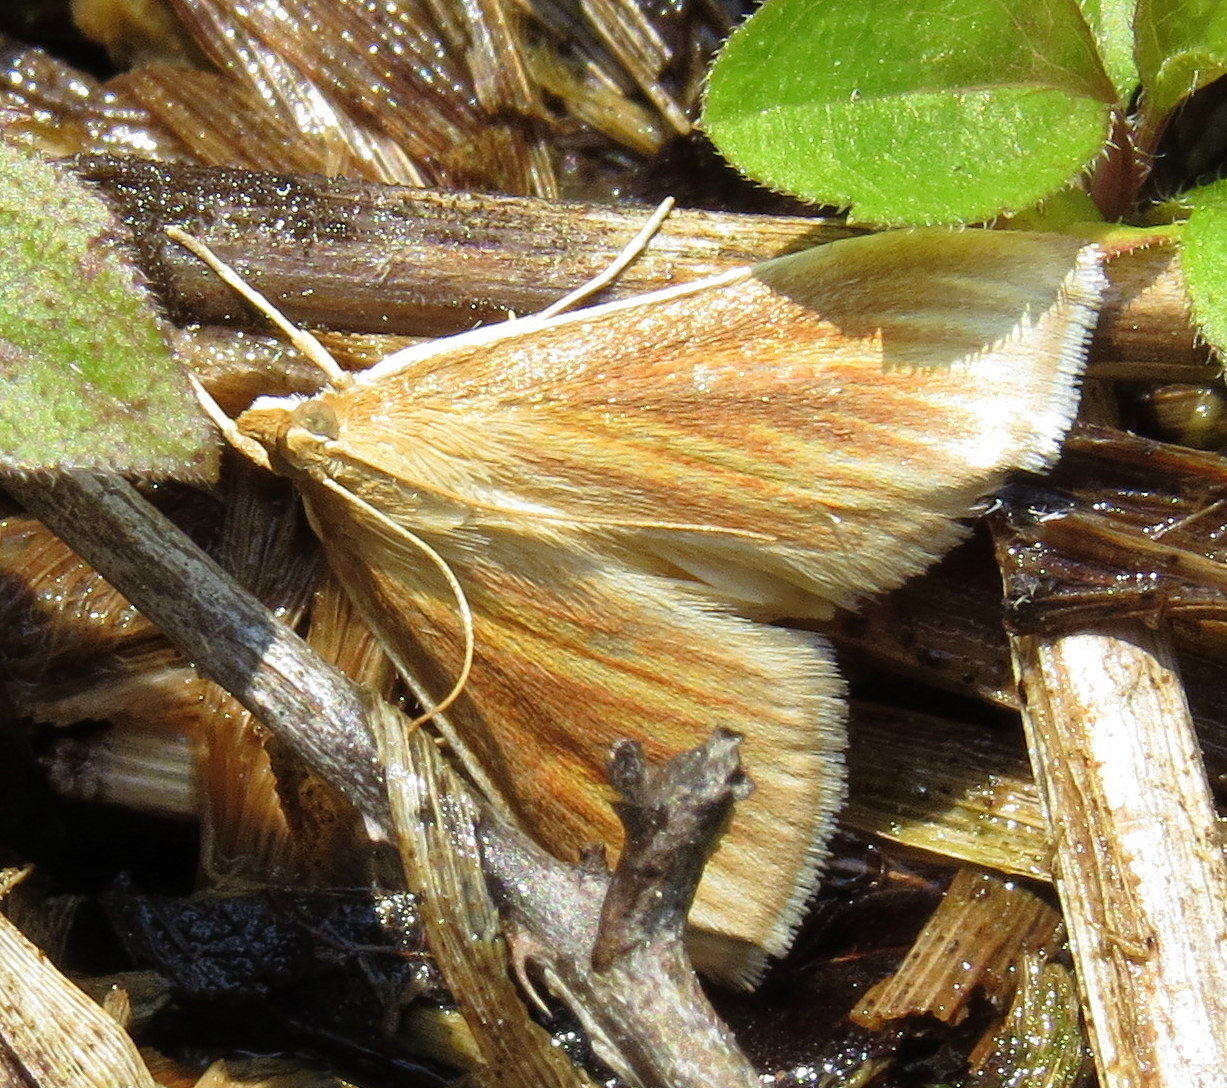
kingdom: Animalia
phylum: Arthropoda
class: Insecta
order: Lepidoptera
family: Crambidae
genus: Nascia
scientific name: Nascia acutellus
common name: Streaked orange moth
